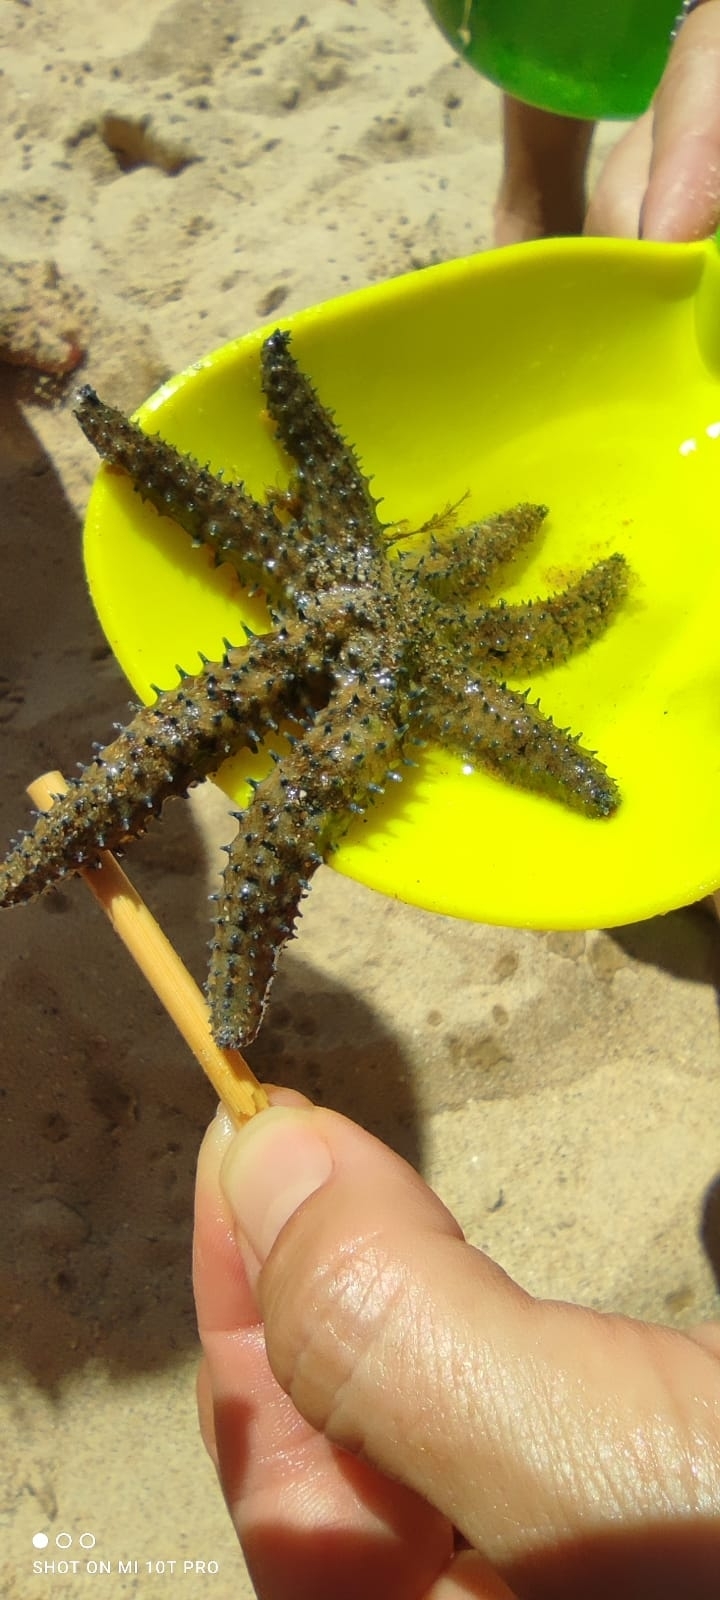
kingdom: Animalia
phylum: Echinodermata
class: Asteroidea
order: Forcipulatida
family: Asteriidae
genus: Coscinasterias
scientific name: Coscinasterias tenuispina
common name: Blue spiny starfish
